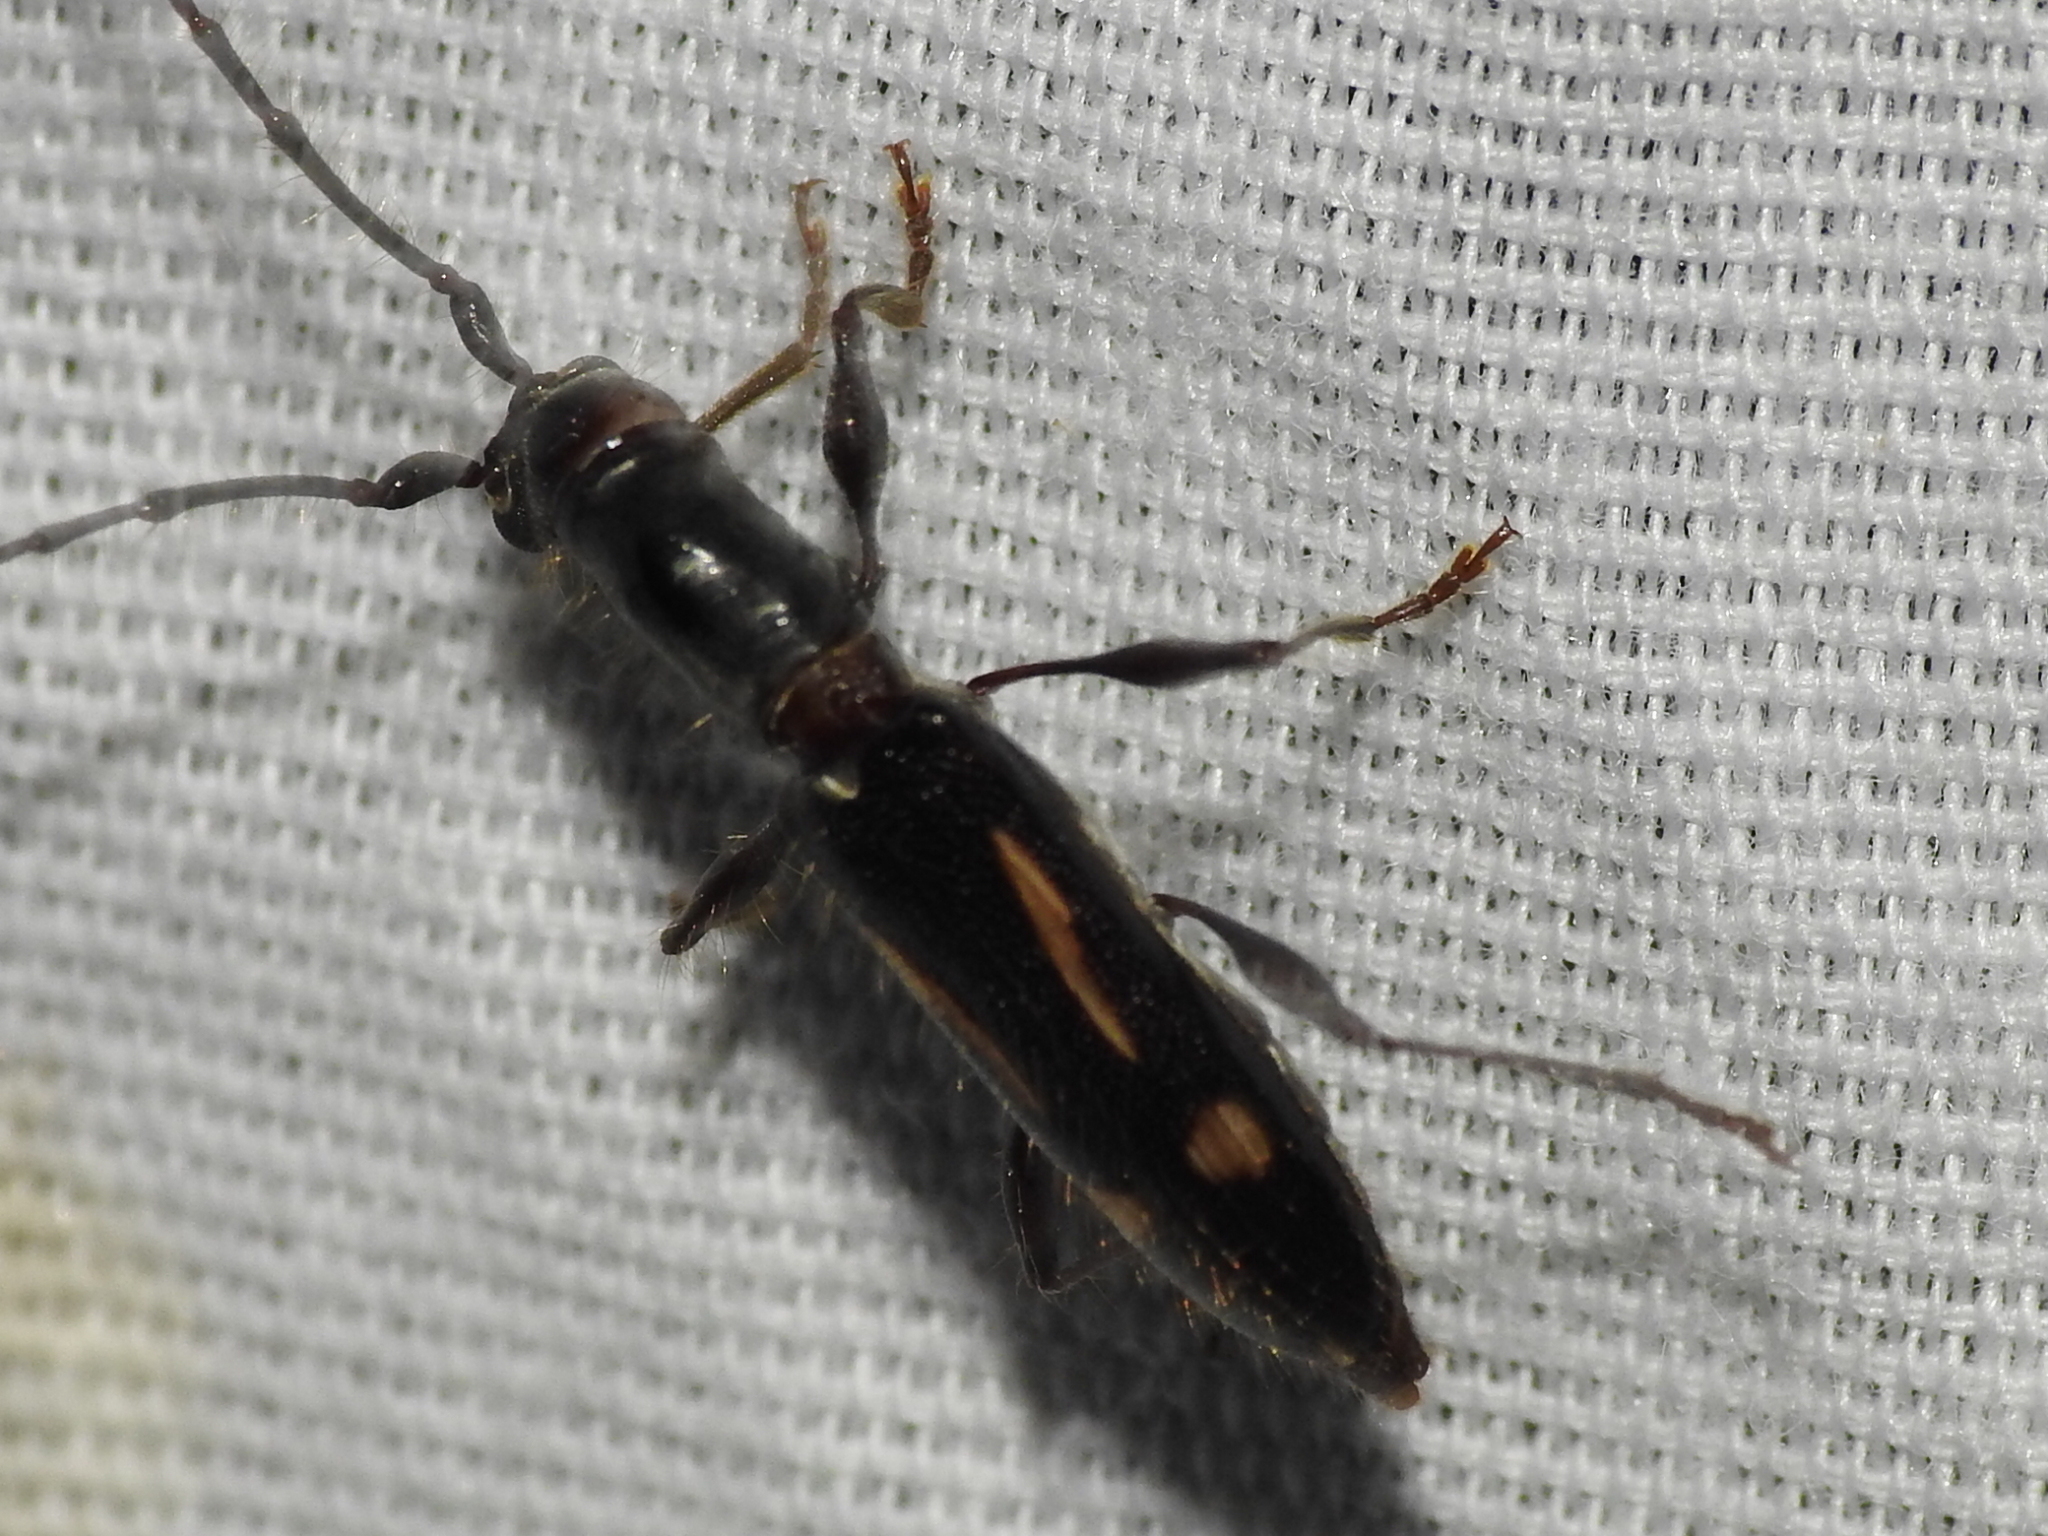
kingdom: Animalia
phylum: Arthropoda
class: Insecta
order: Coleoptera
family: Cerambycidae
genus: Neocompsa
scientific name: Neocompsa exclamationis
